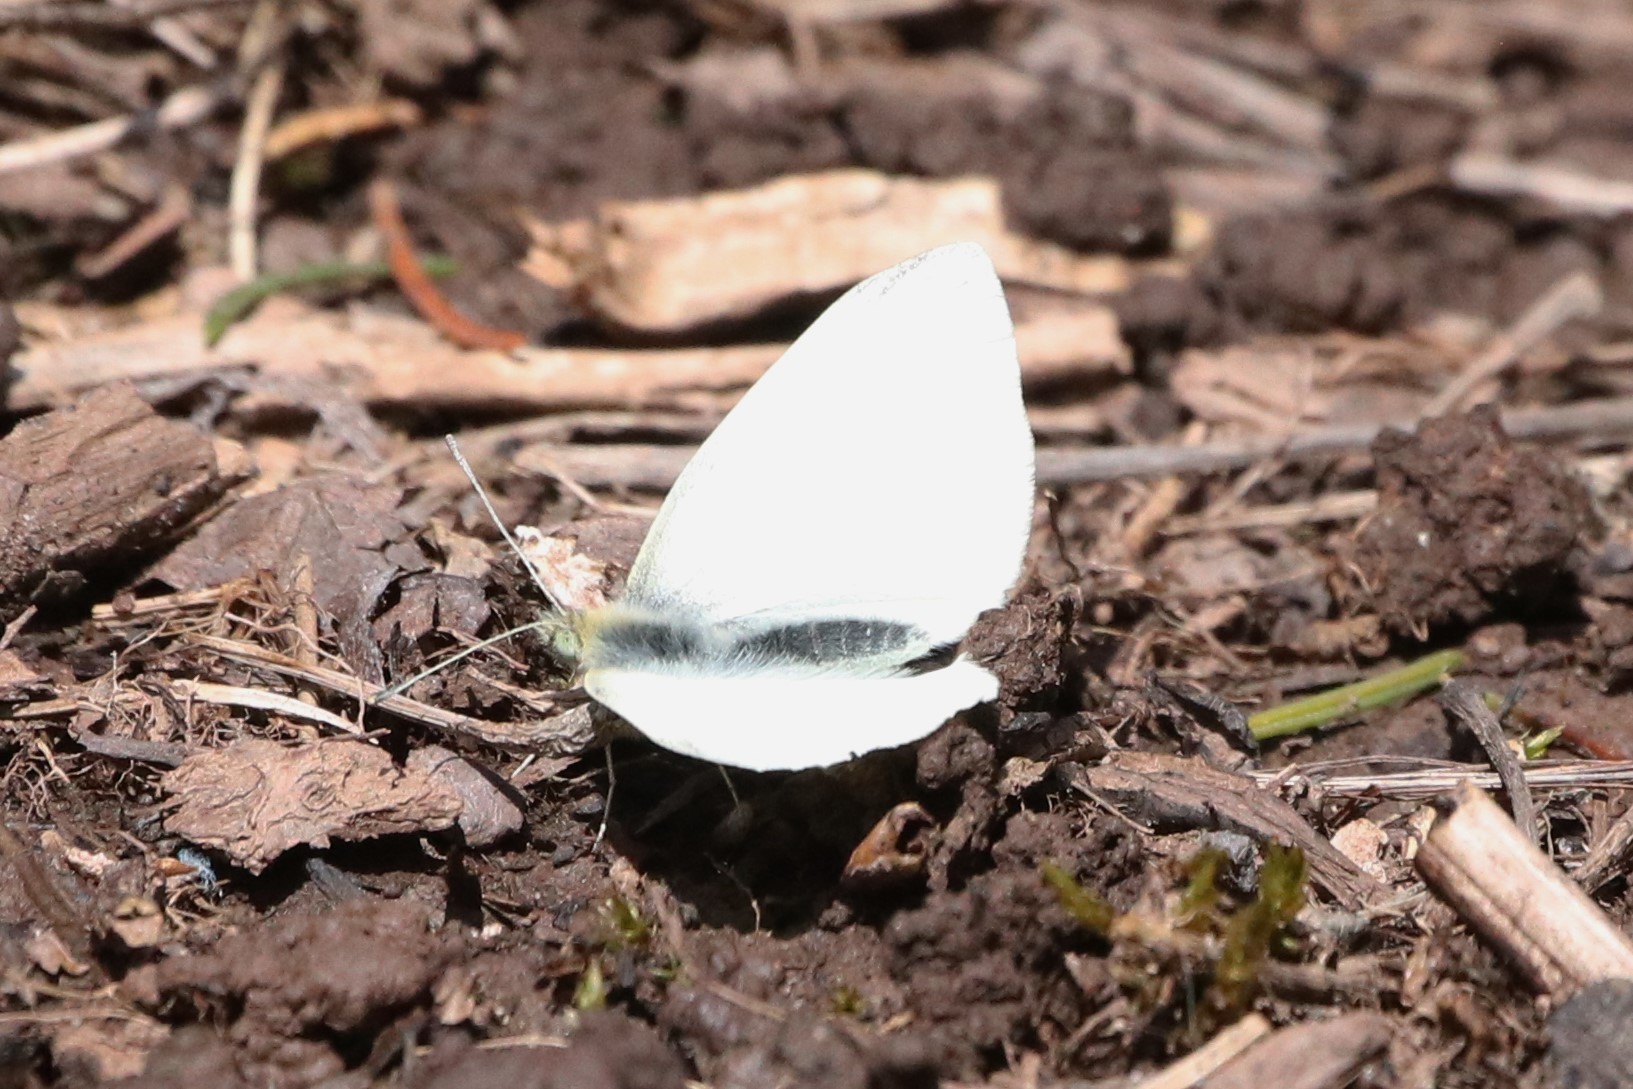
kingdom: Animalia
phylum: Arthropoda
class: Insecta
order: Lepidoptera
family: Pieridae
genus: Pieris
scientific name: Pieris rapae
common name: Small white
